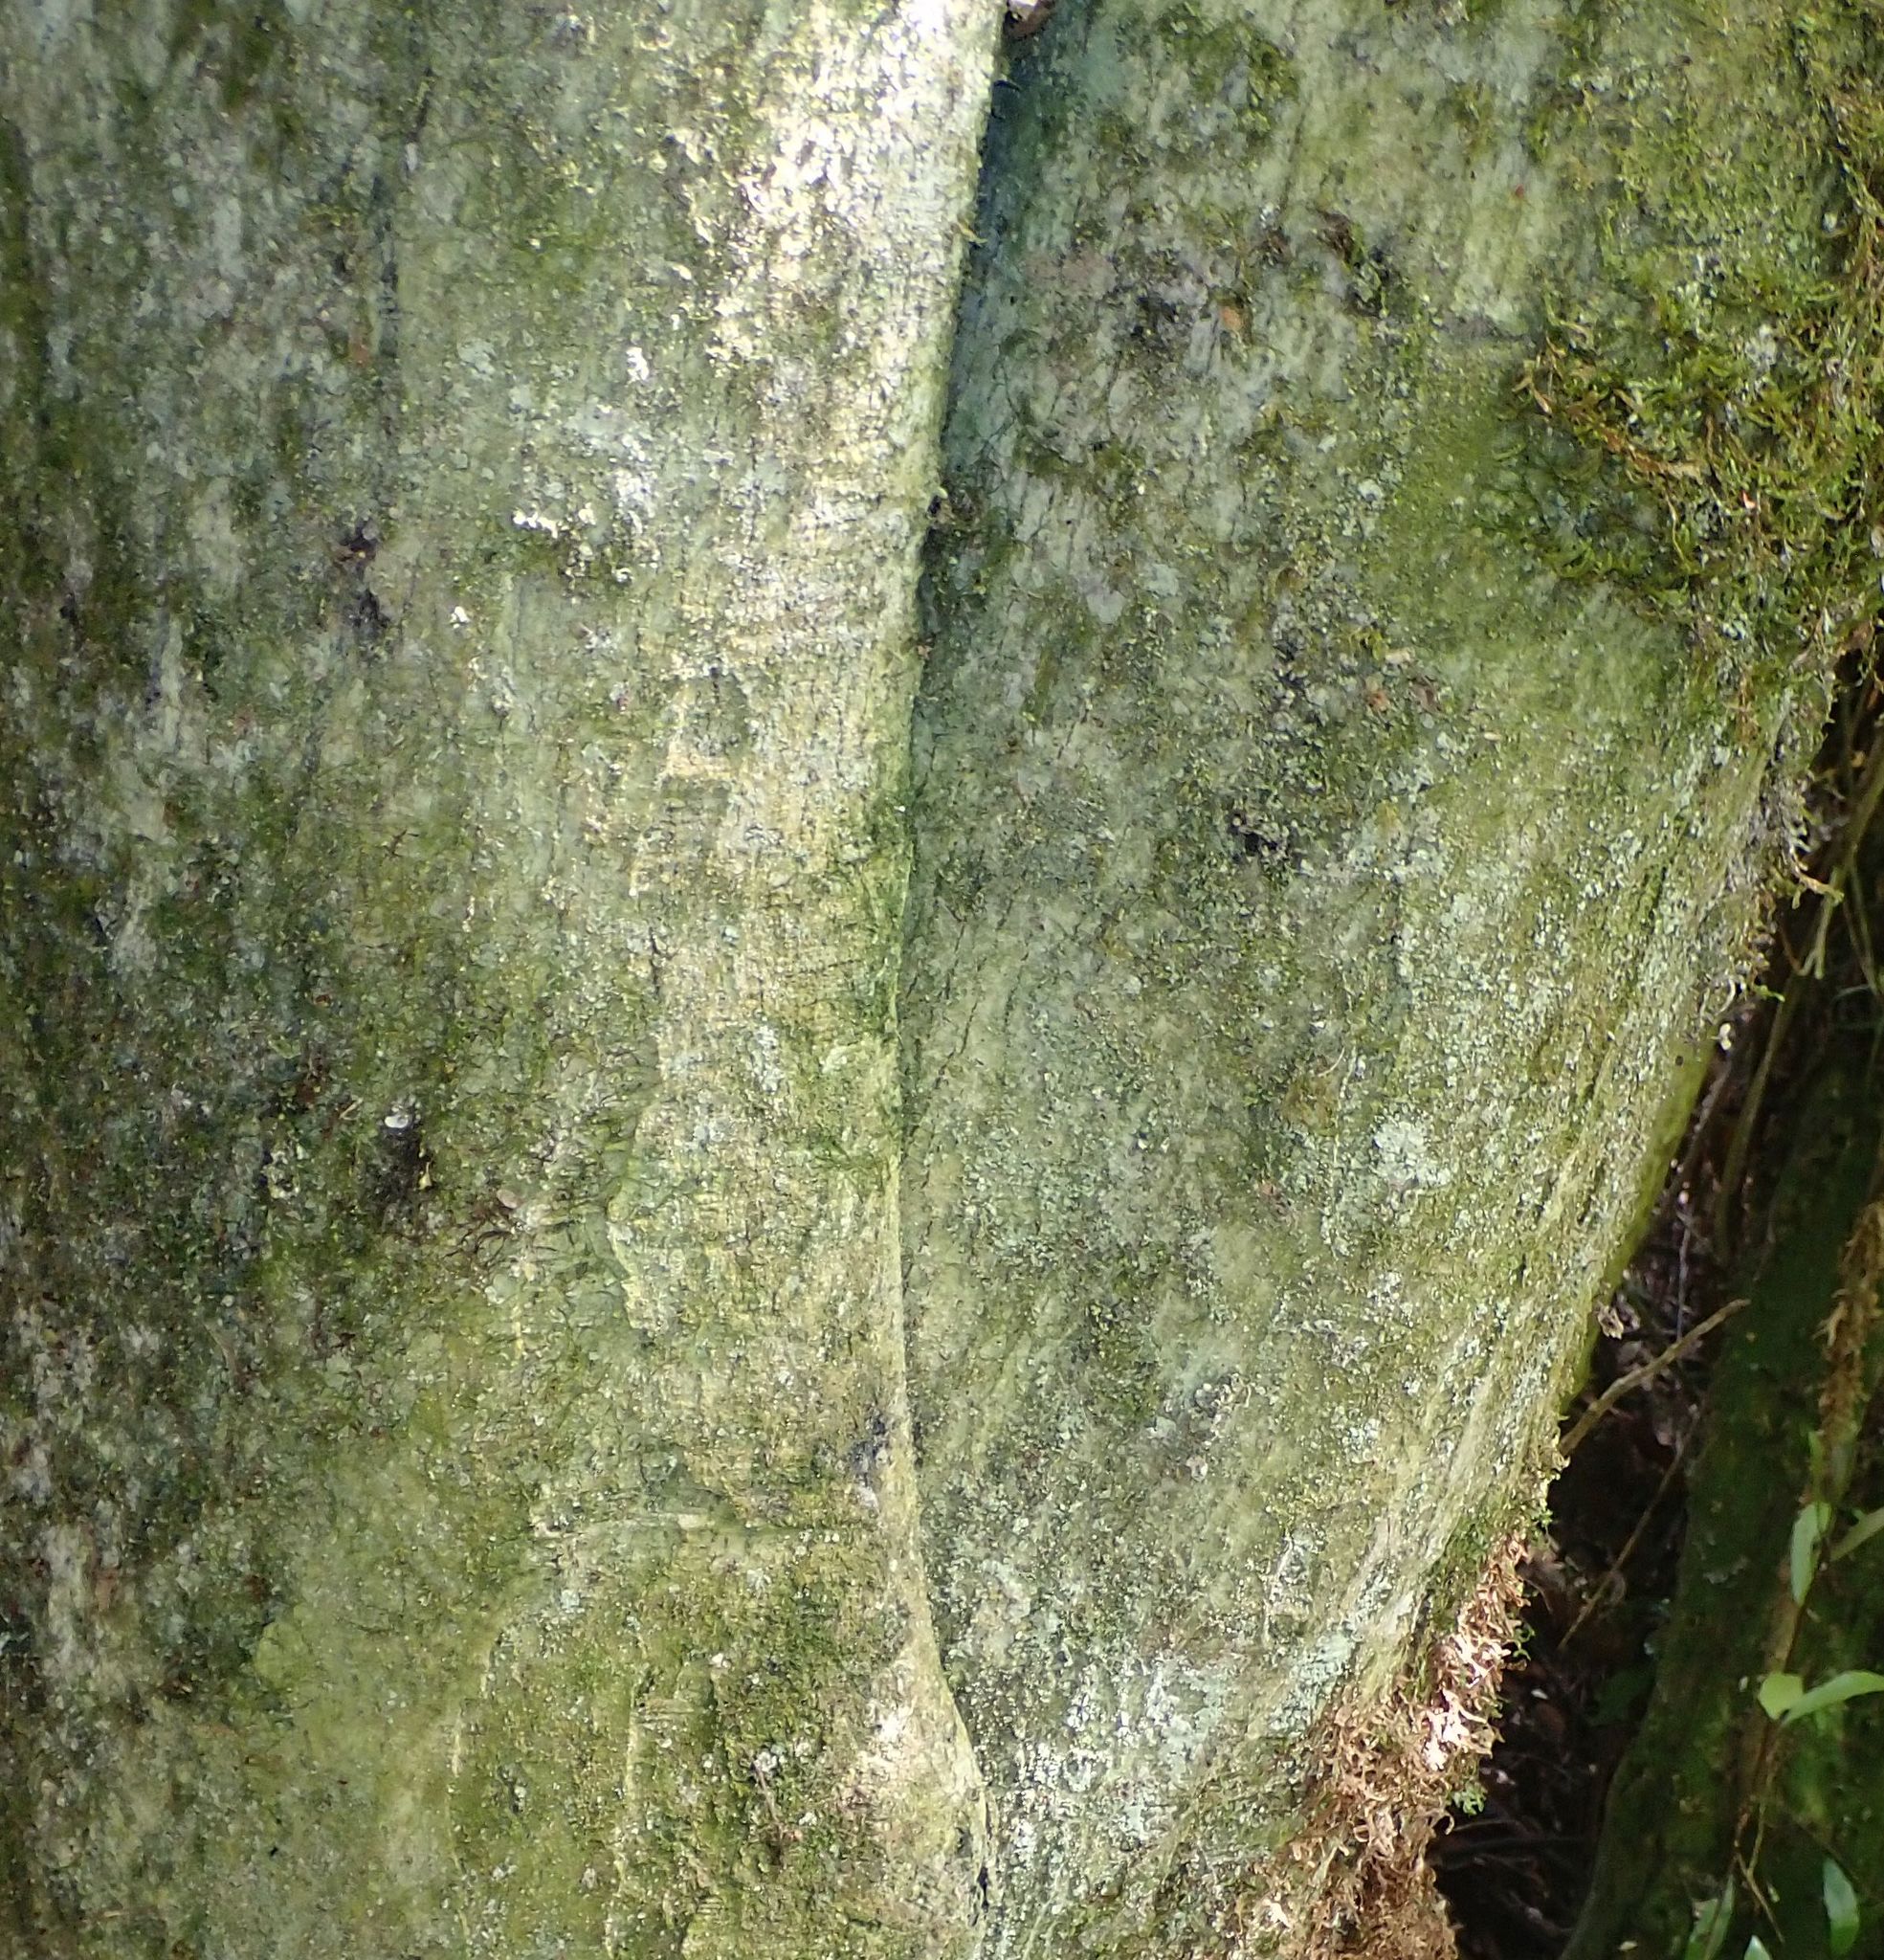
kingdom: Plantae
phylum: Tracheophyta
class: Magnoliopsida
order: Malvales
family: Malvaceae
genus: Hoheria
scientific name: Hoheria angustifolia
